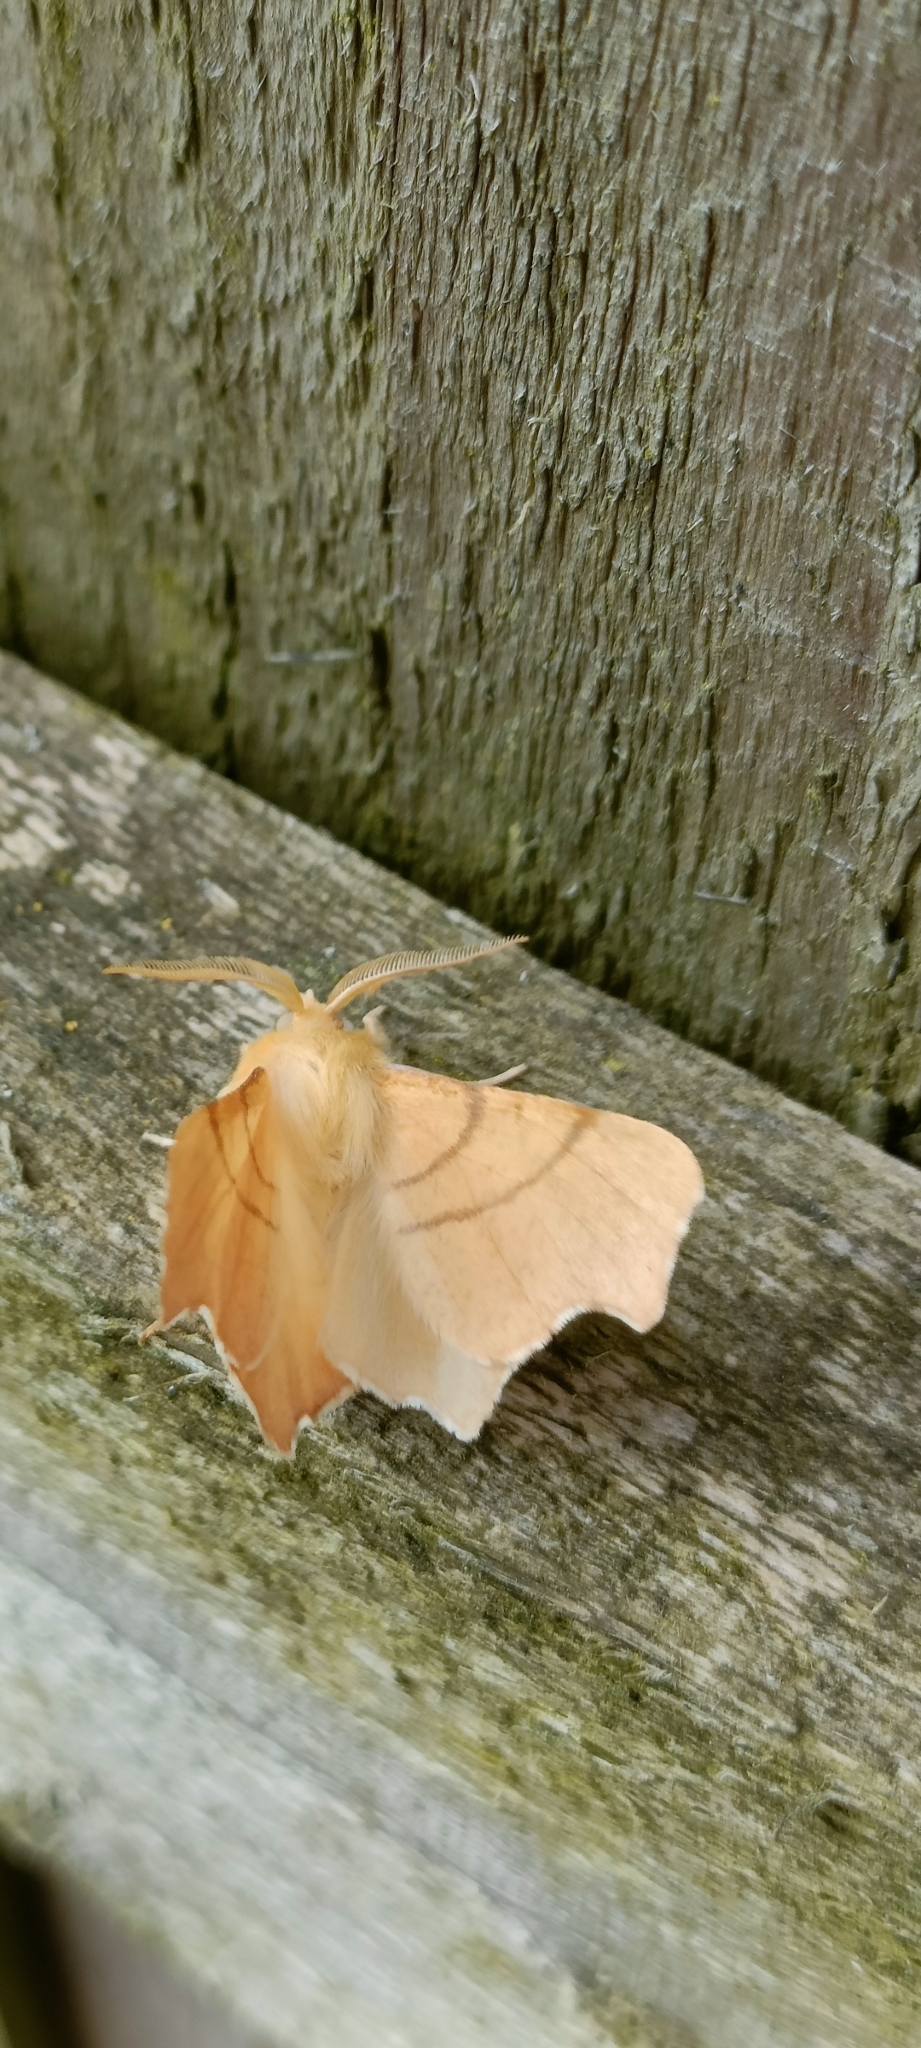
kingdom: Animalia
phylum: Arthropoda
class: Insecta
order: Lepidoptera
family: Geometridae
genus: Ennomos
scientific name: Ennomos erosaria
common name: September thorn
